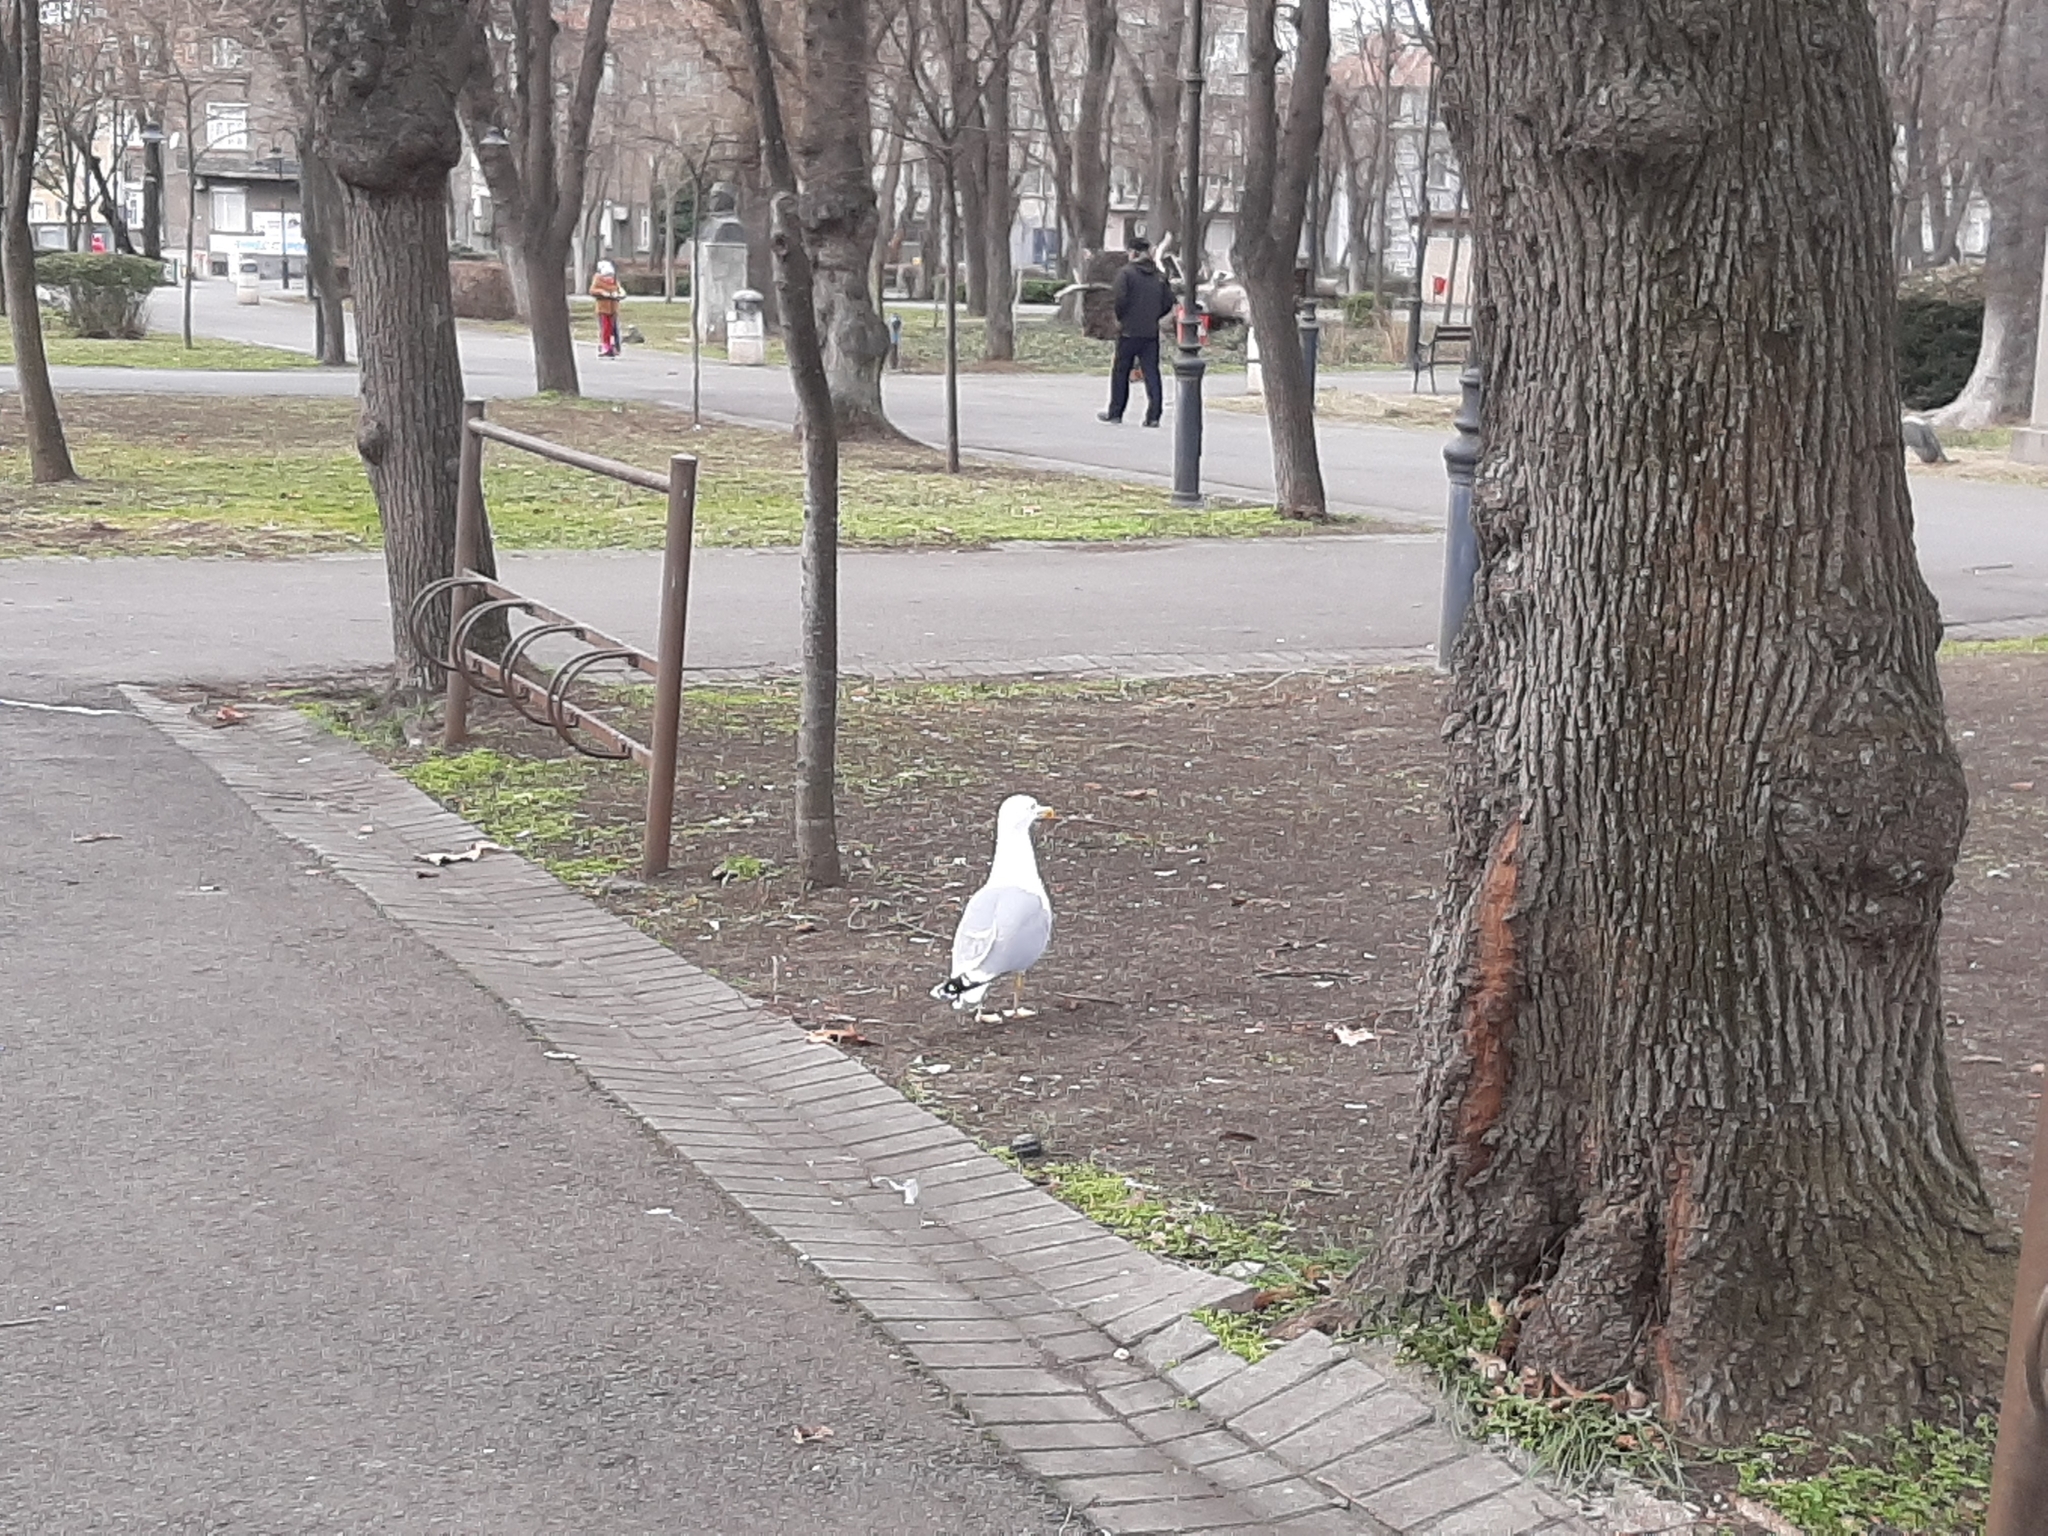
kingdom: Animalia
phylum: Chordata
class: Aves
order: Charadriiformes
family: Laridae
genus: Larus
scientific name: Larus michahellis
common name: Yellow-legged gull
